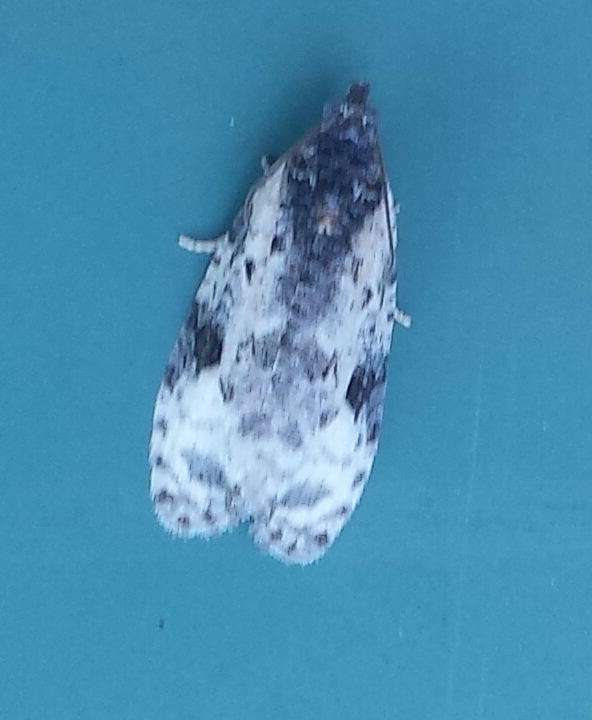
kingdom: Animalia
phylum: Arthropoda
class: Insecta
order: Lepidoptera
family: Tortricidae
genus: Apotomis
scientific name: Apotomis albeolana
